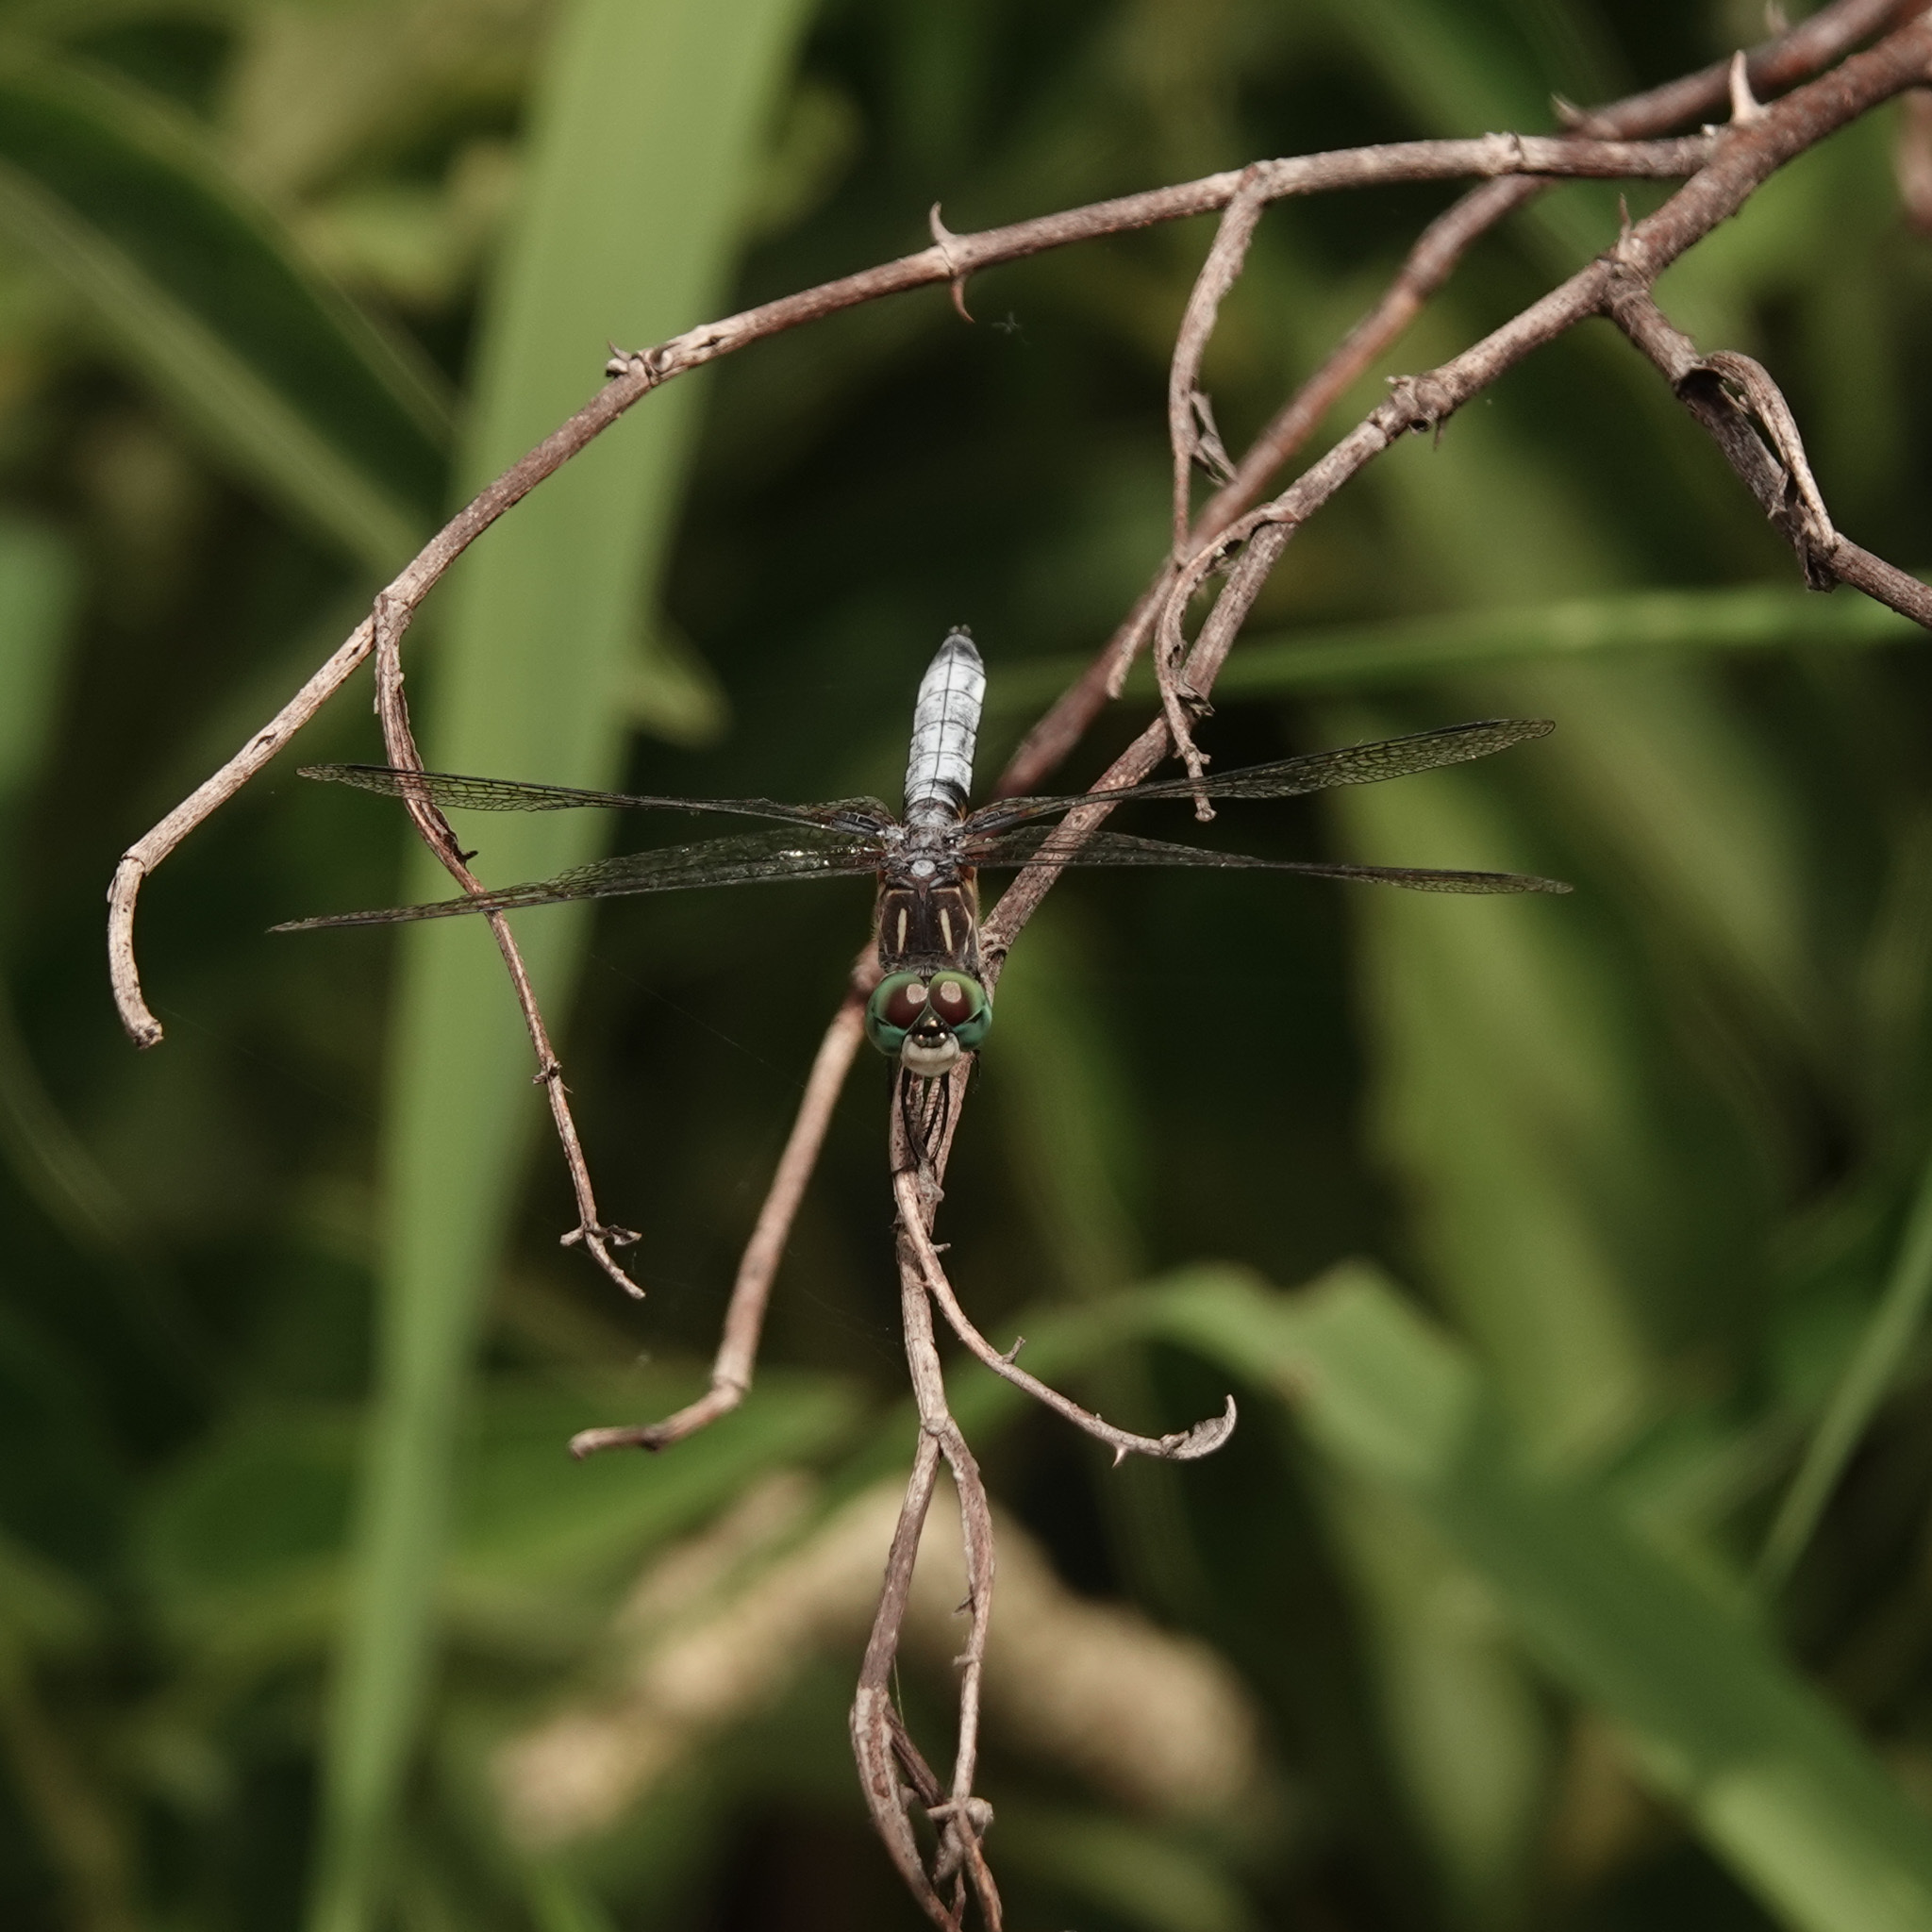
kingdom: Animalia
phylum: Arthropoda
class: Insecta
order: Odonata
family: Libellulidae
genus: Pachydiplax
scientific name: Pachydiplax longipennis
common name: Blue dasher
